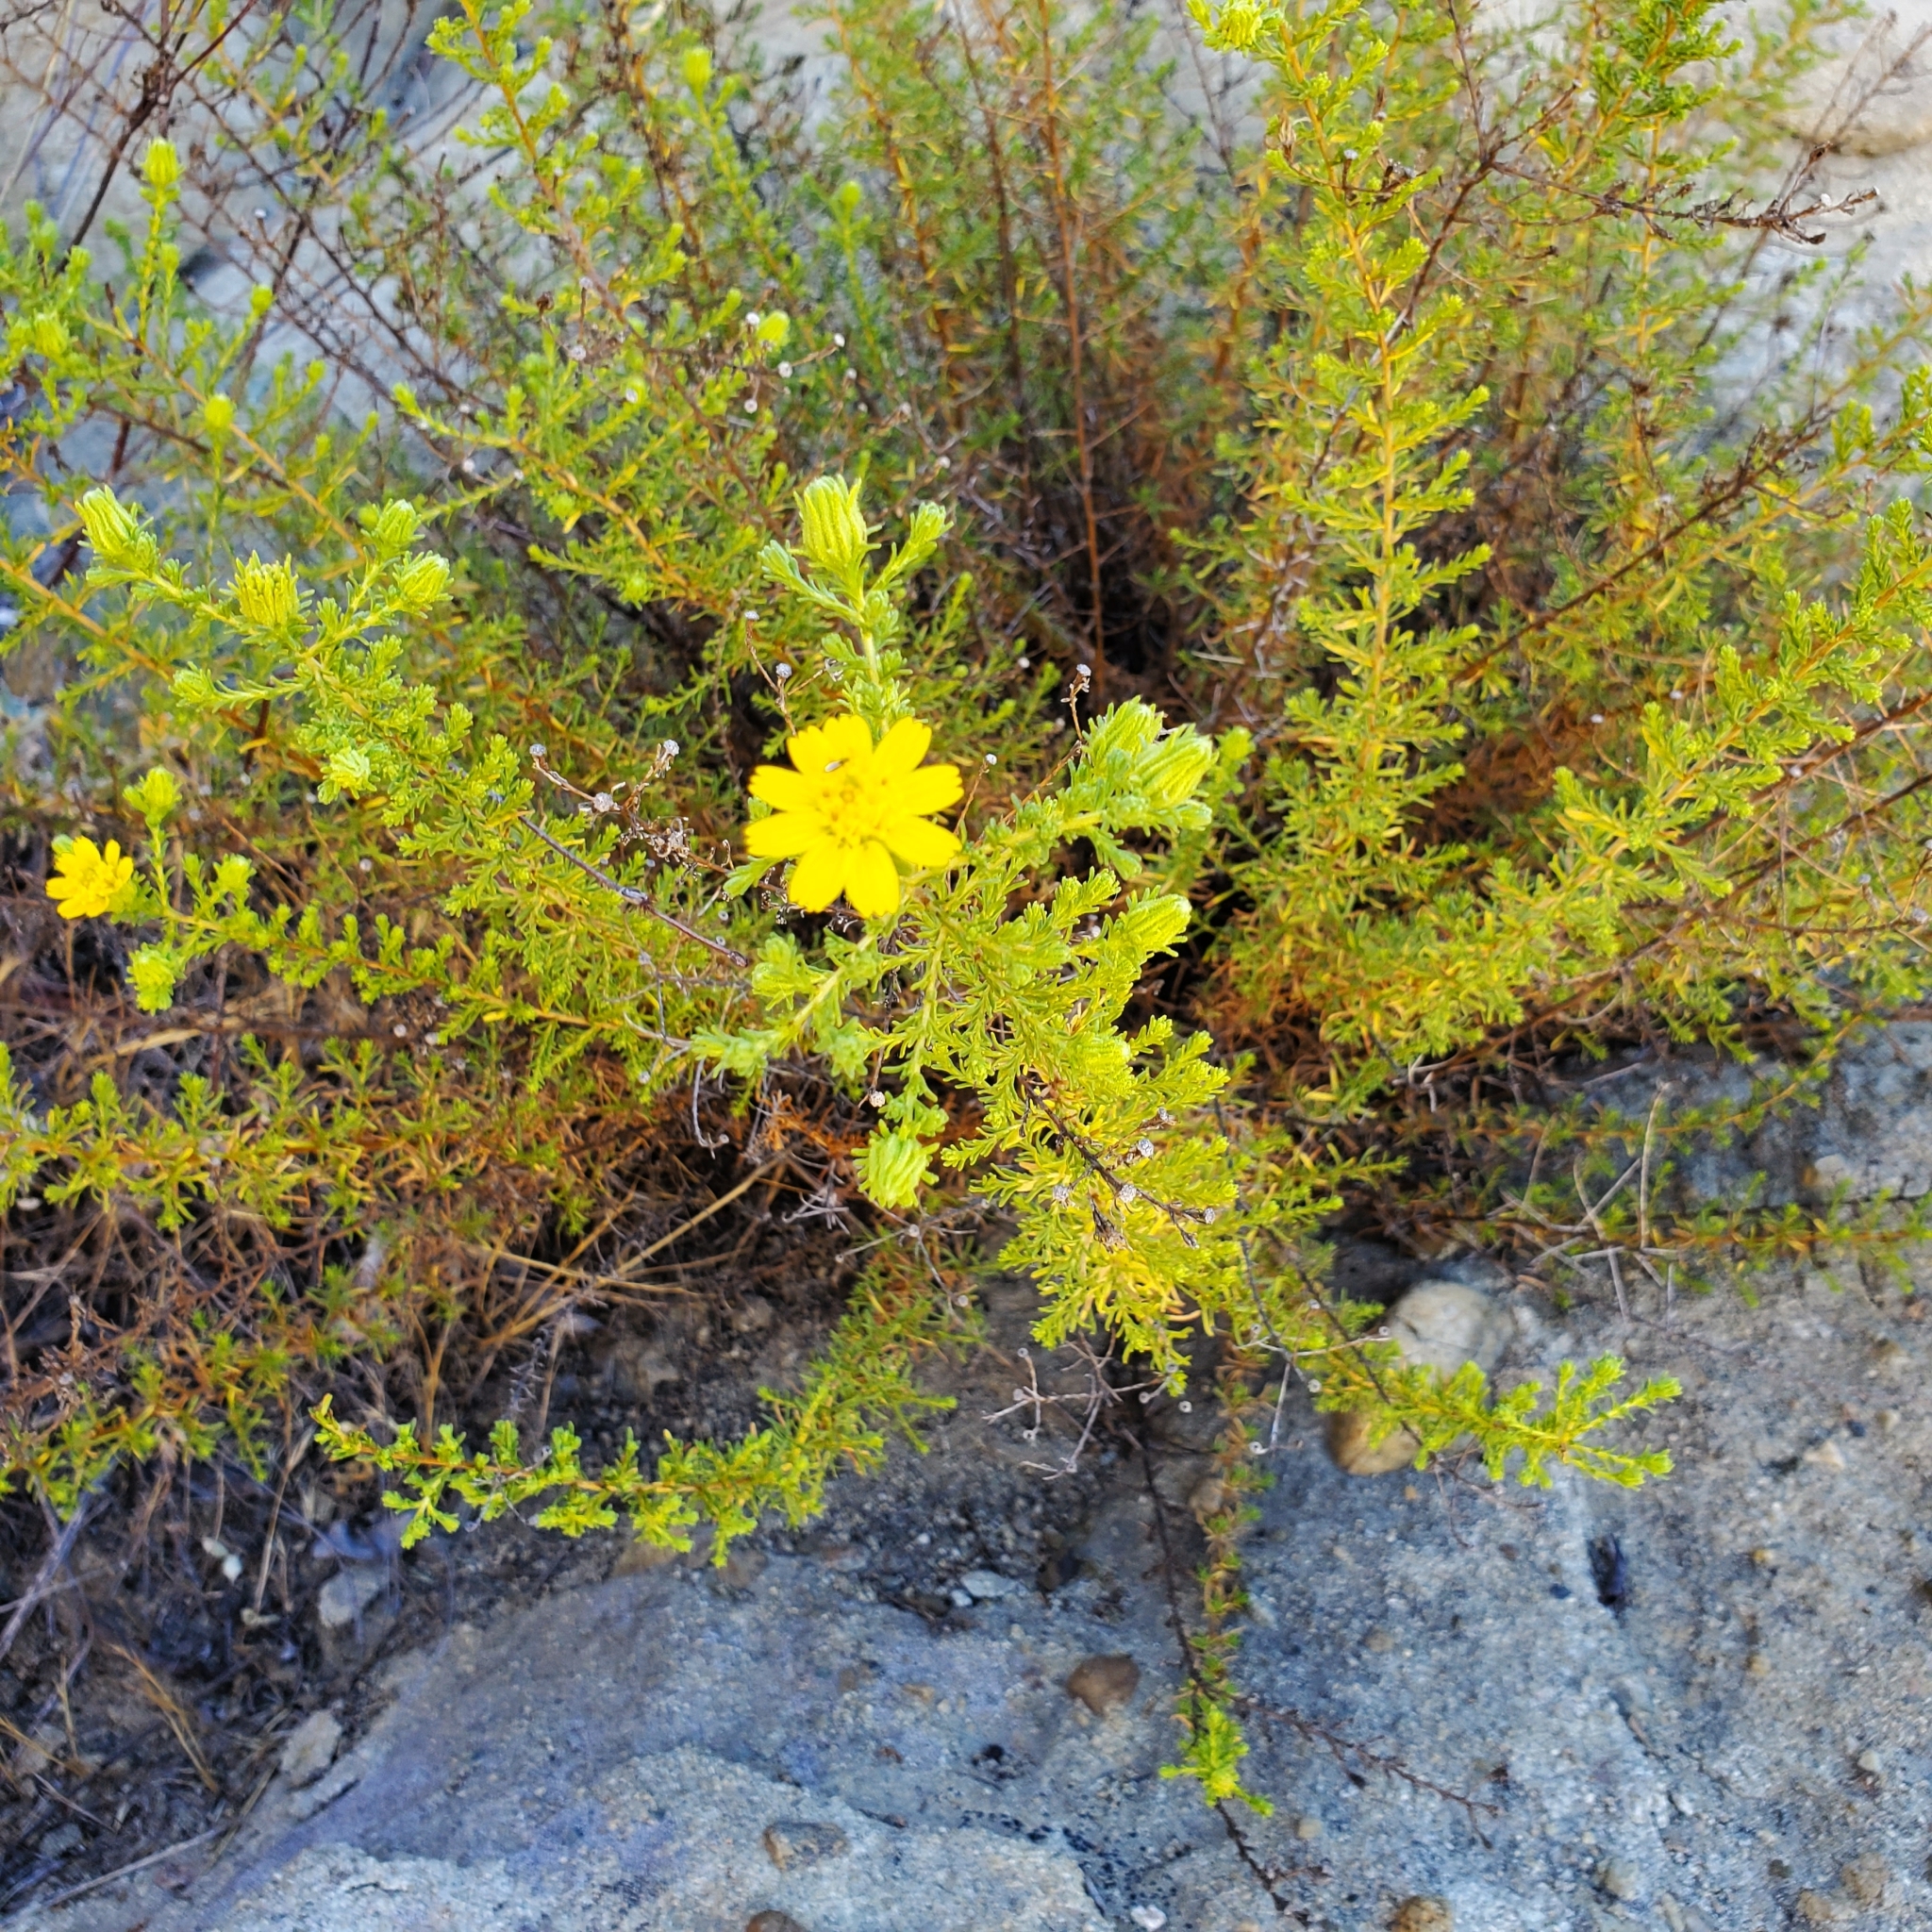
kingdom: Plantae
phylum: Tracheophyta
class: Magnoliopsida
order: Asterales
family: Asteraceae
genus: Deinandra
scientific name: Deinandra minthornii
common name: Santa susana tarplant
